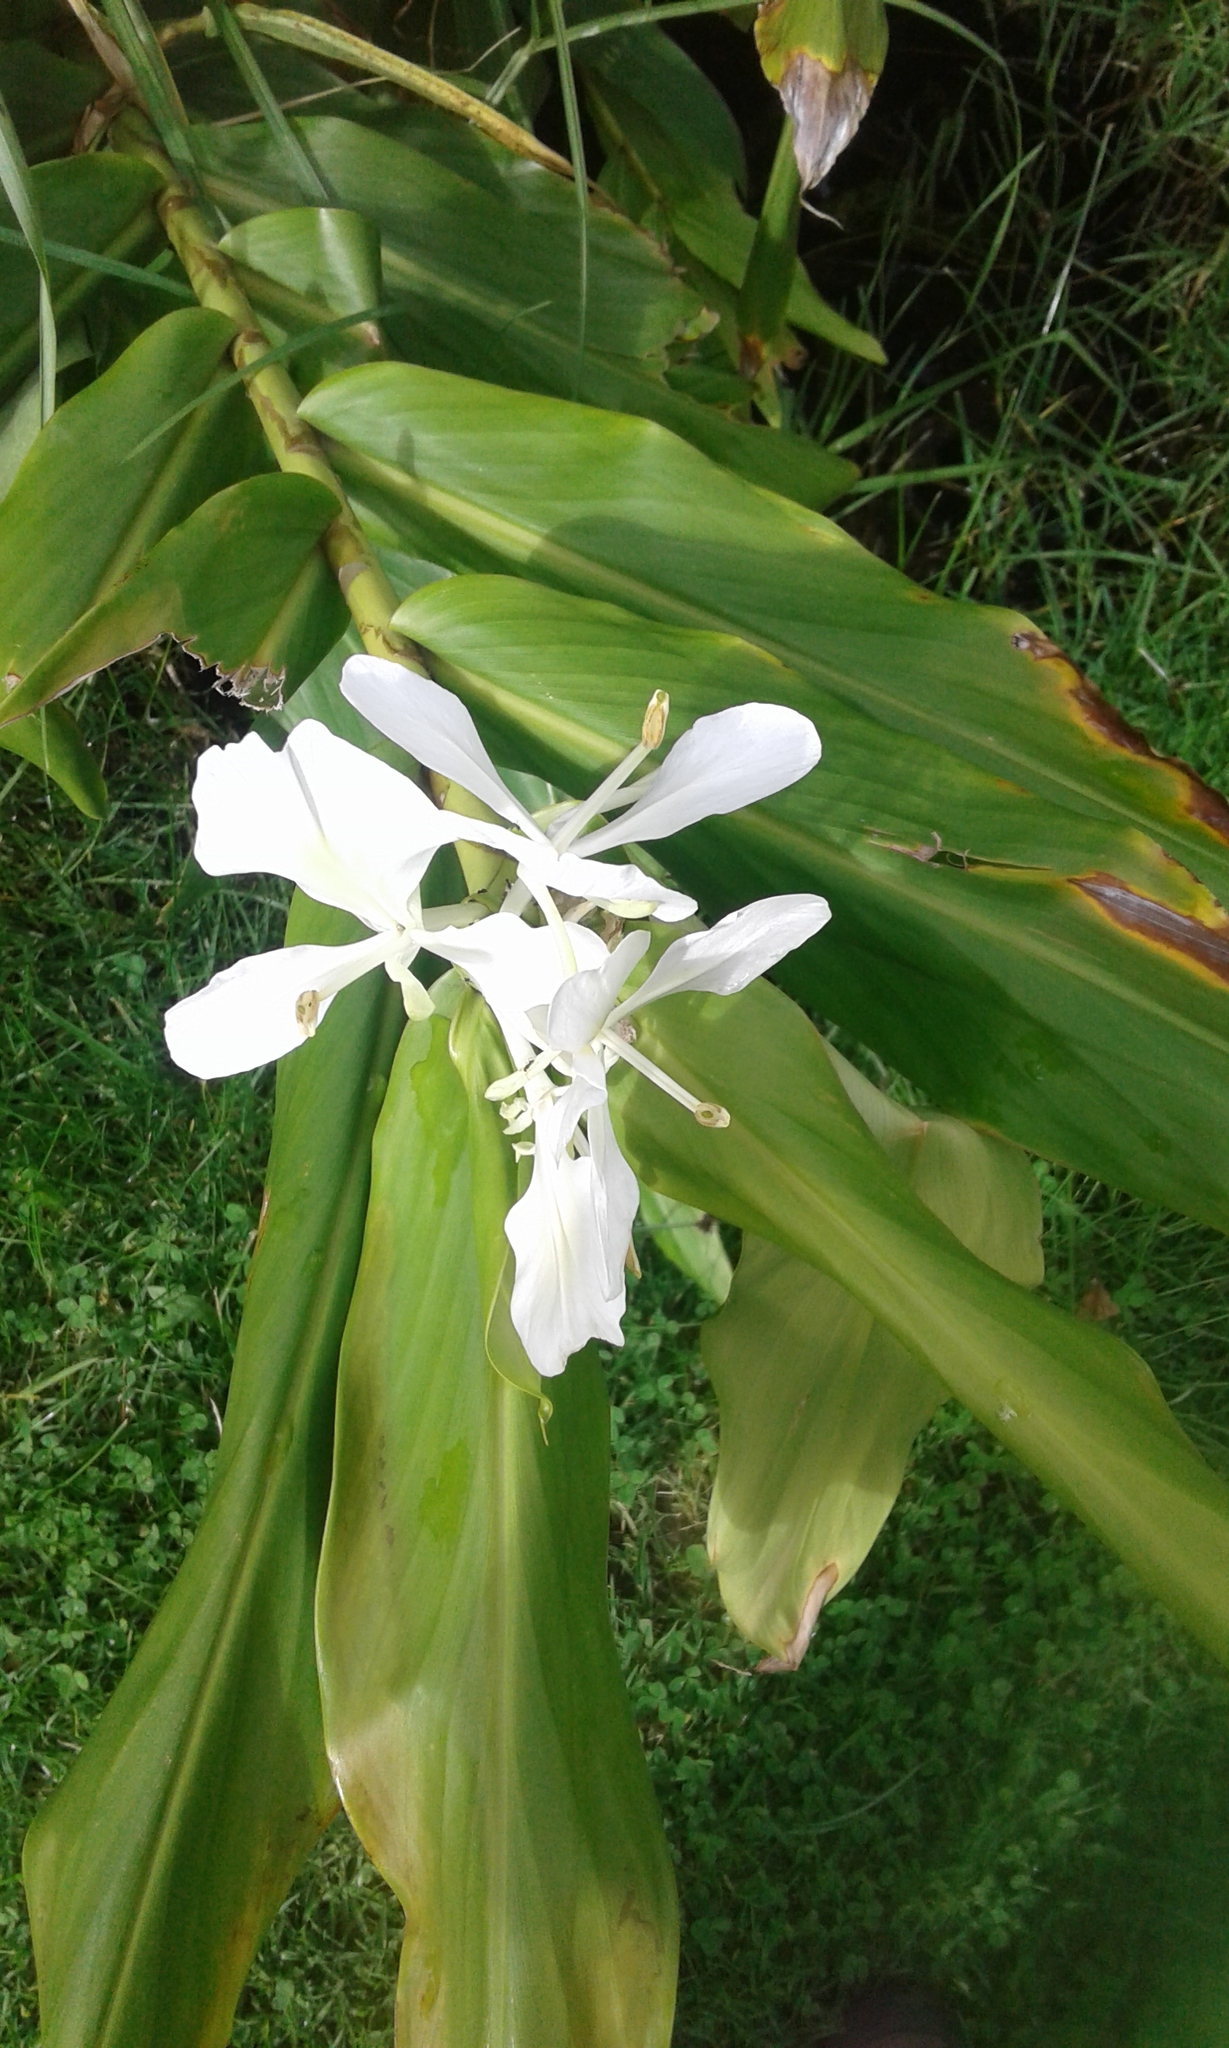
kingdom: Plantae
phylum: Tracheophyta
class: Liliopsida
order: Zingiberales
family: Zingiberaceae
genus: Hedychium
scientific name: Hedychium coronarium
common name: White garland-lily
